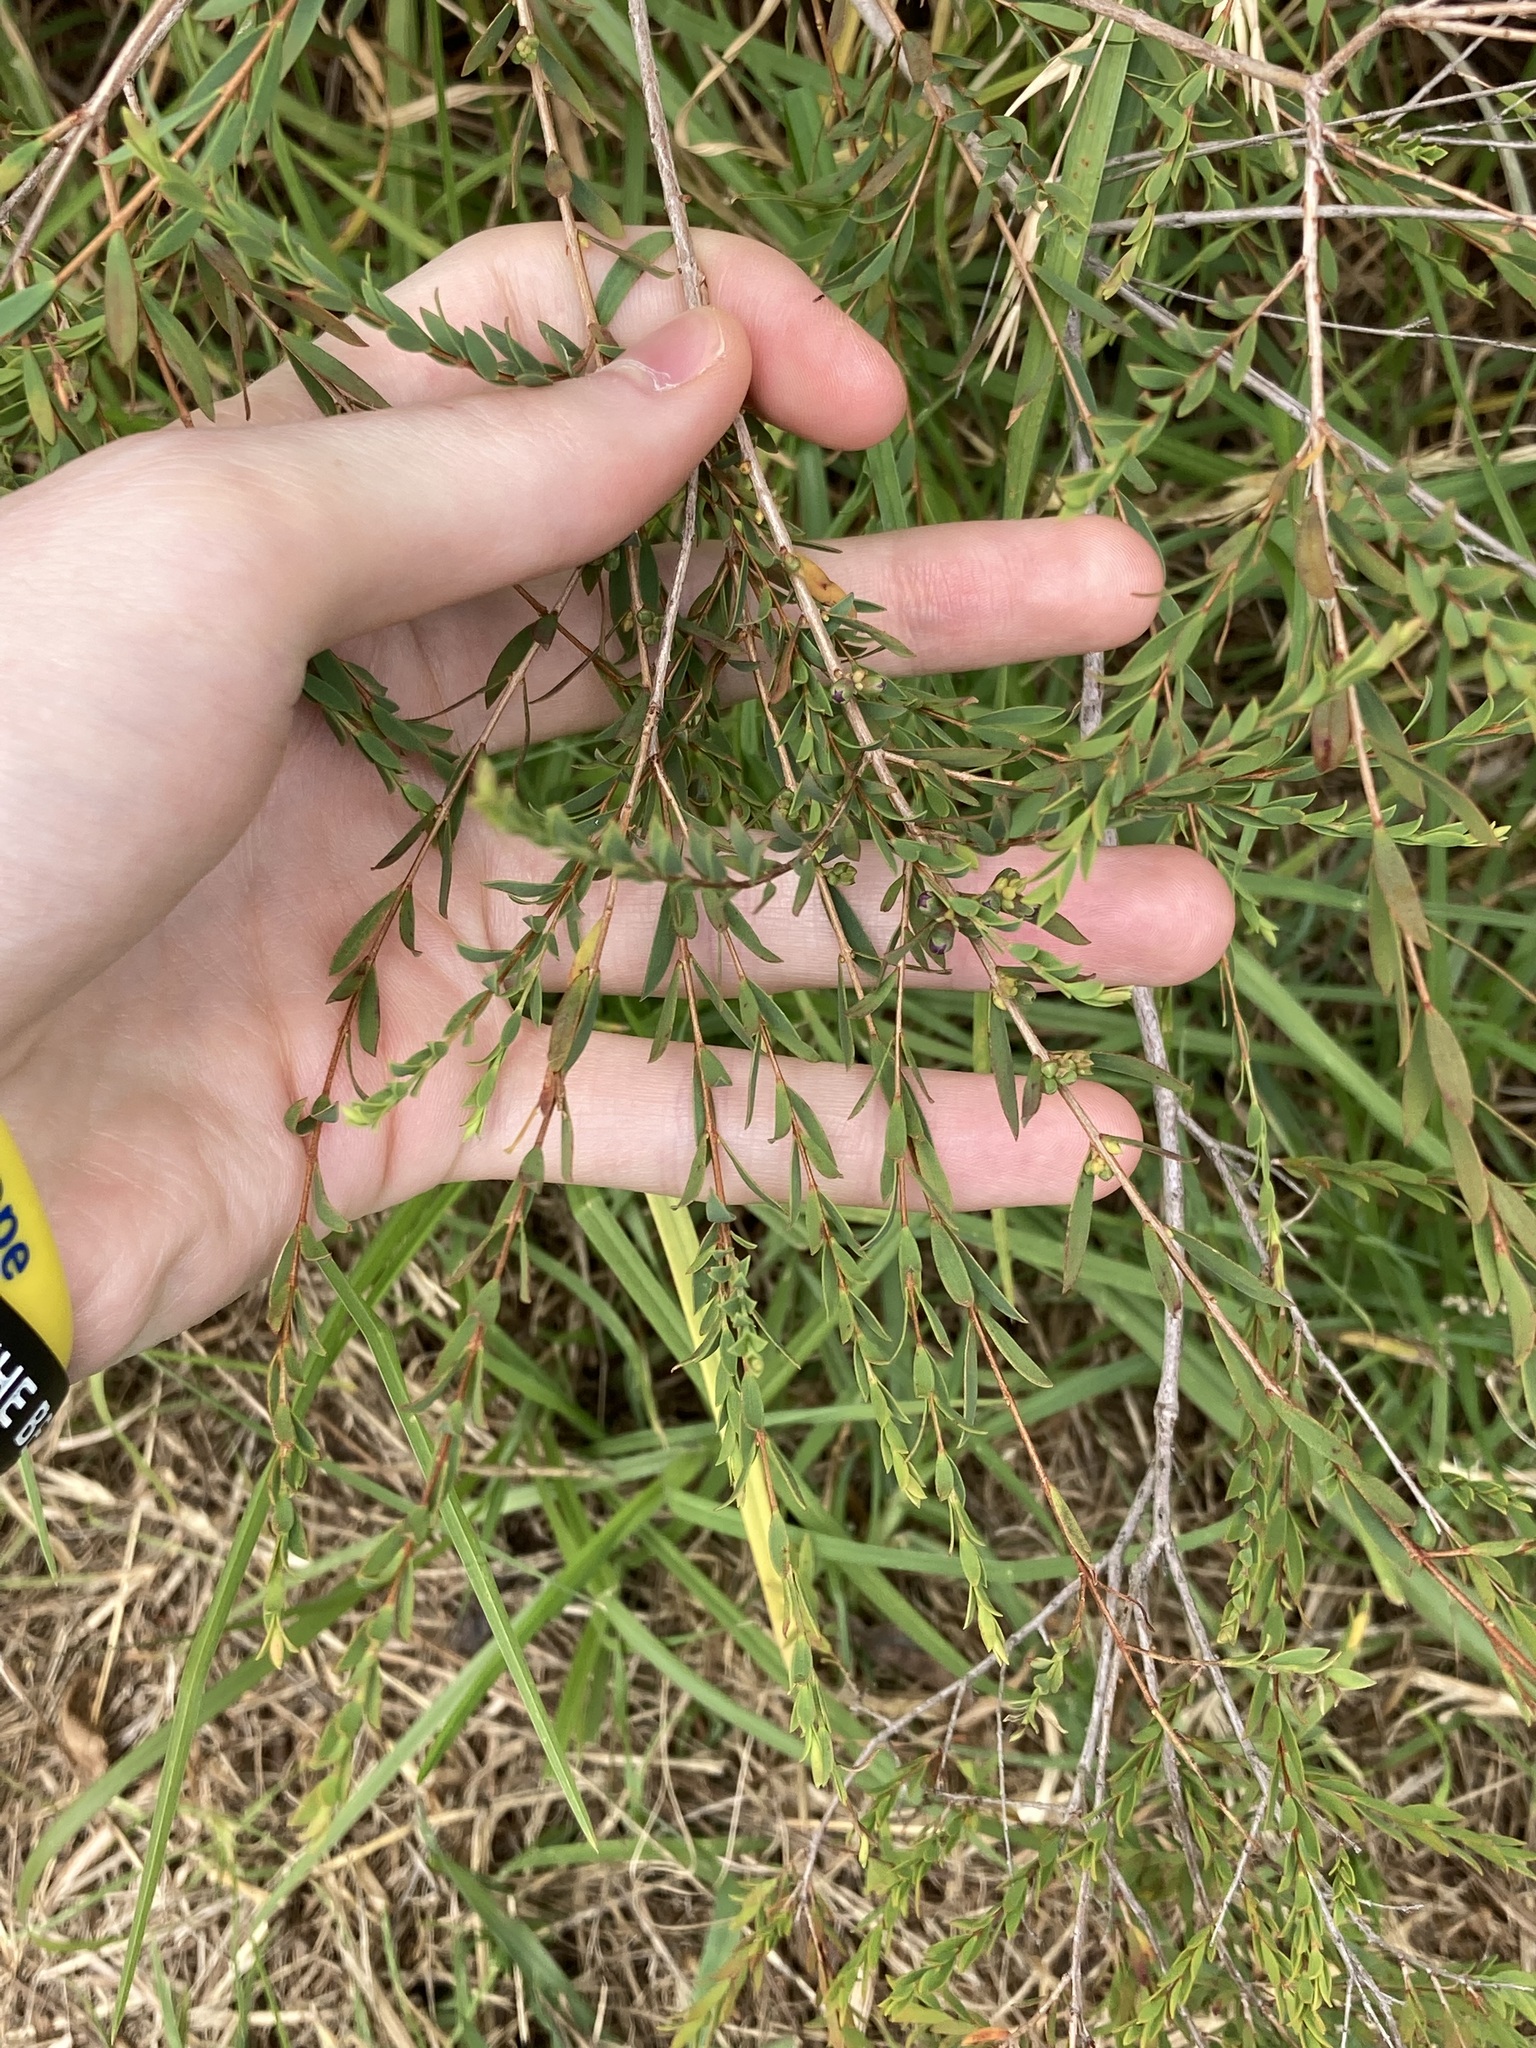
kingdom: Plantae
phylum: Tracheophyta
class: Magnoliopsida
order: Myrtales
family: Myrtaceae
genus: Melaleuca
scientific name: Melaleuca thymifolia
